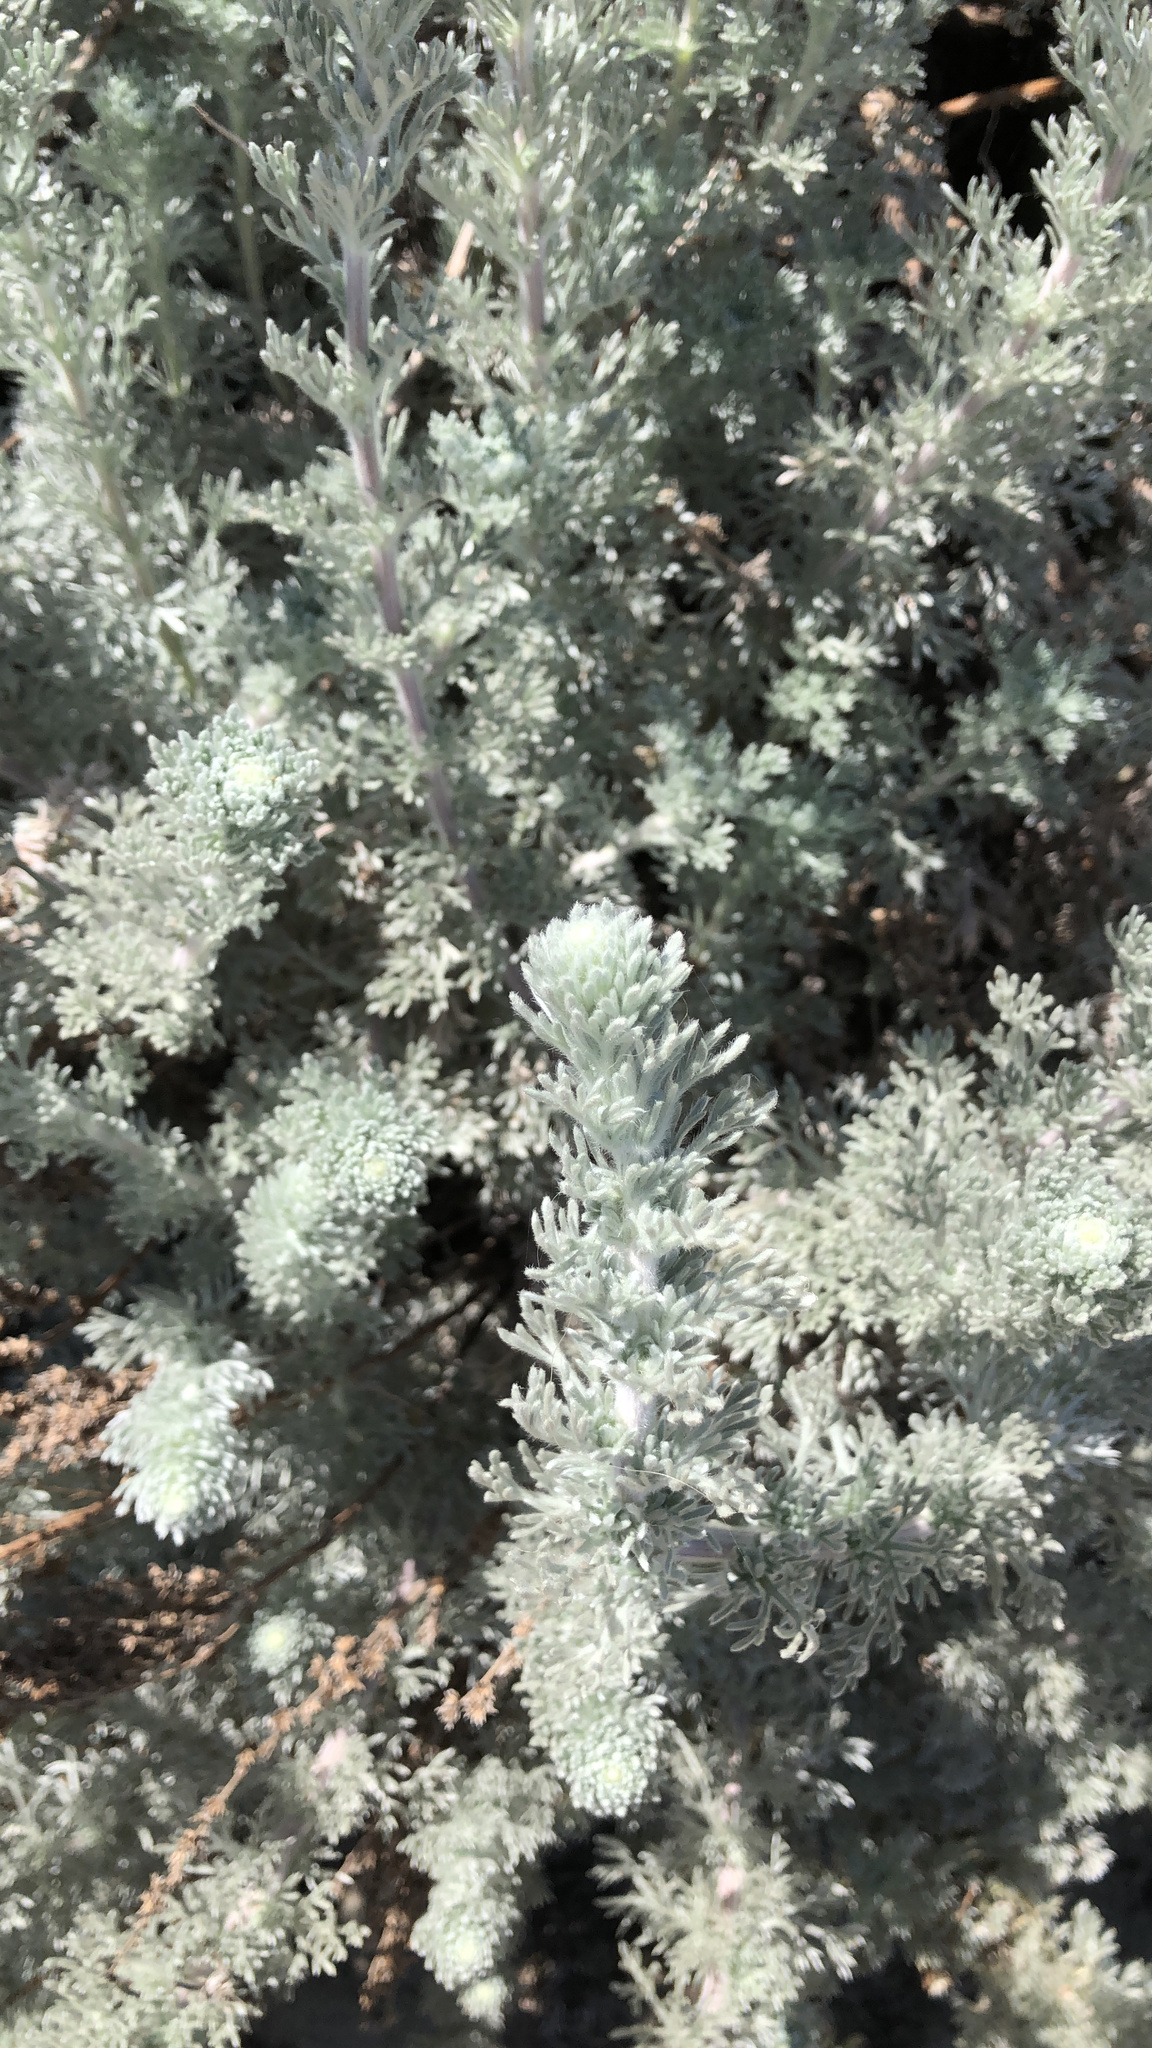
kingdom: Plantae
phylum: Tracheophyta
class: Magnoliopsida
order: Asterales
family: Asteraceae
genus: Artemisia
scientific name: Artemisia pycnocephala
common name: Coastal sagewort
